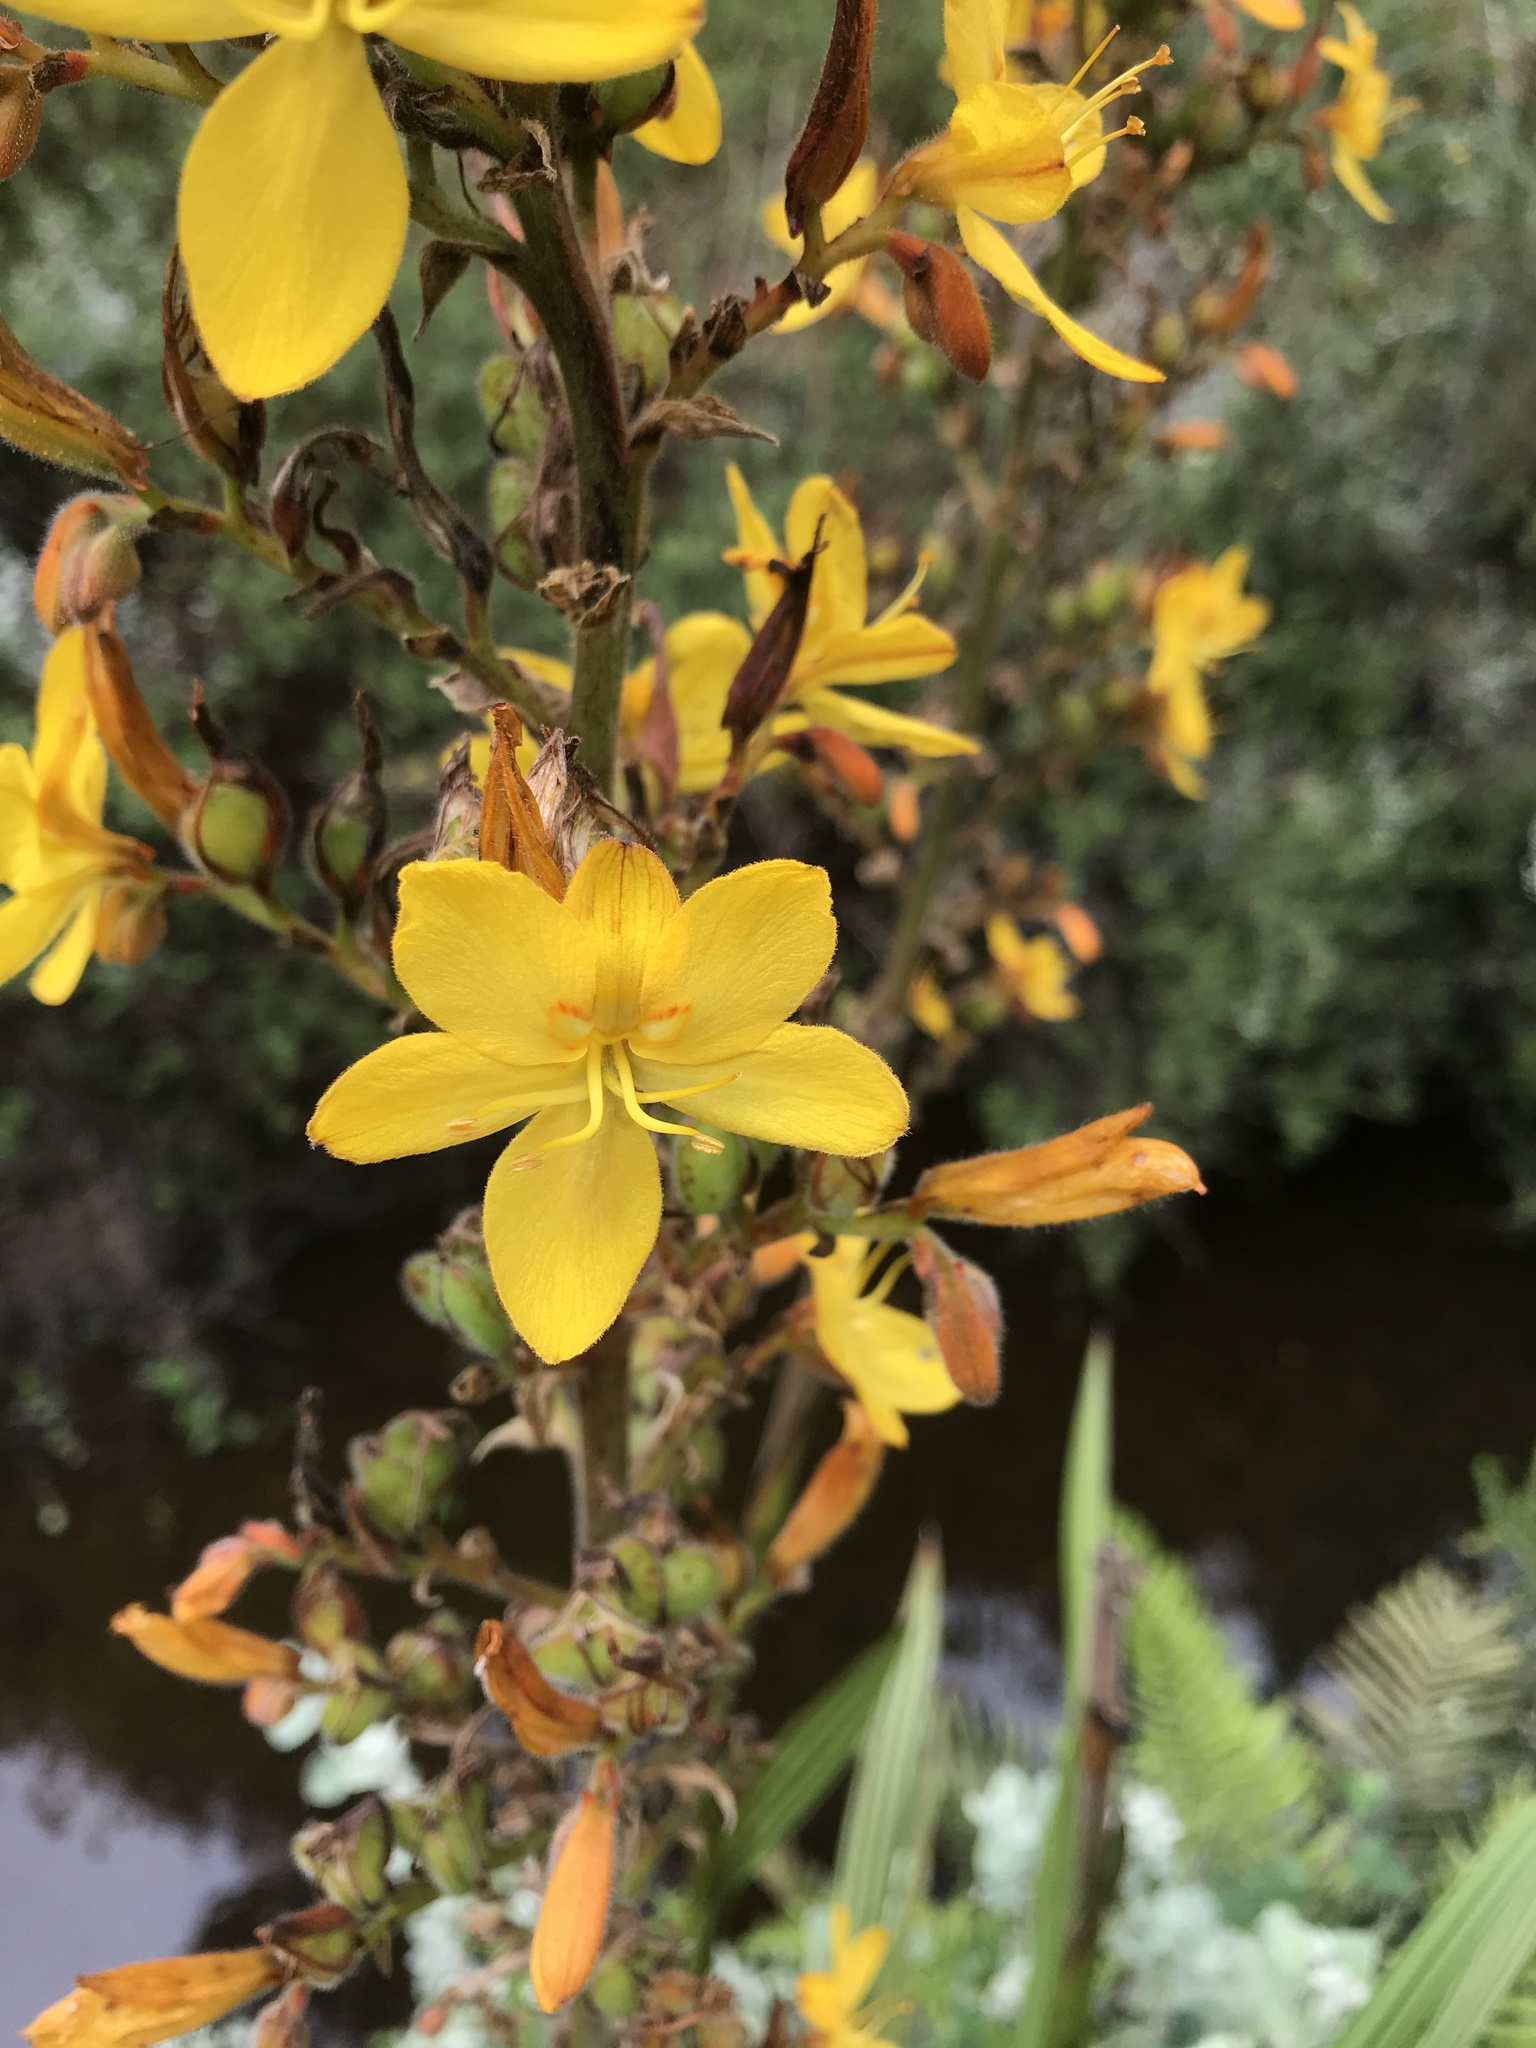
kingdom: Plantae
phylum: Tracheophyta
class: Liliopsida
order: Commelinales
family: Haemodoraceae
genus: Wachendorfia
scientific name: Wachendorfia thyrsiflora
